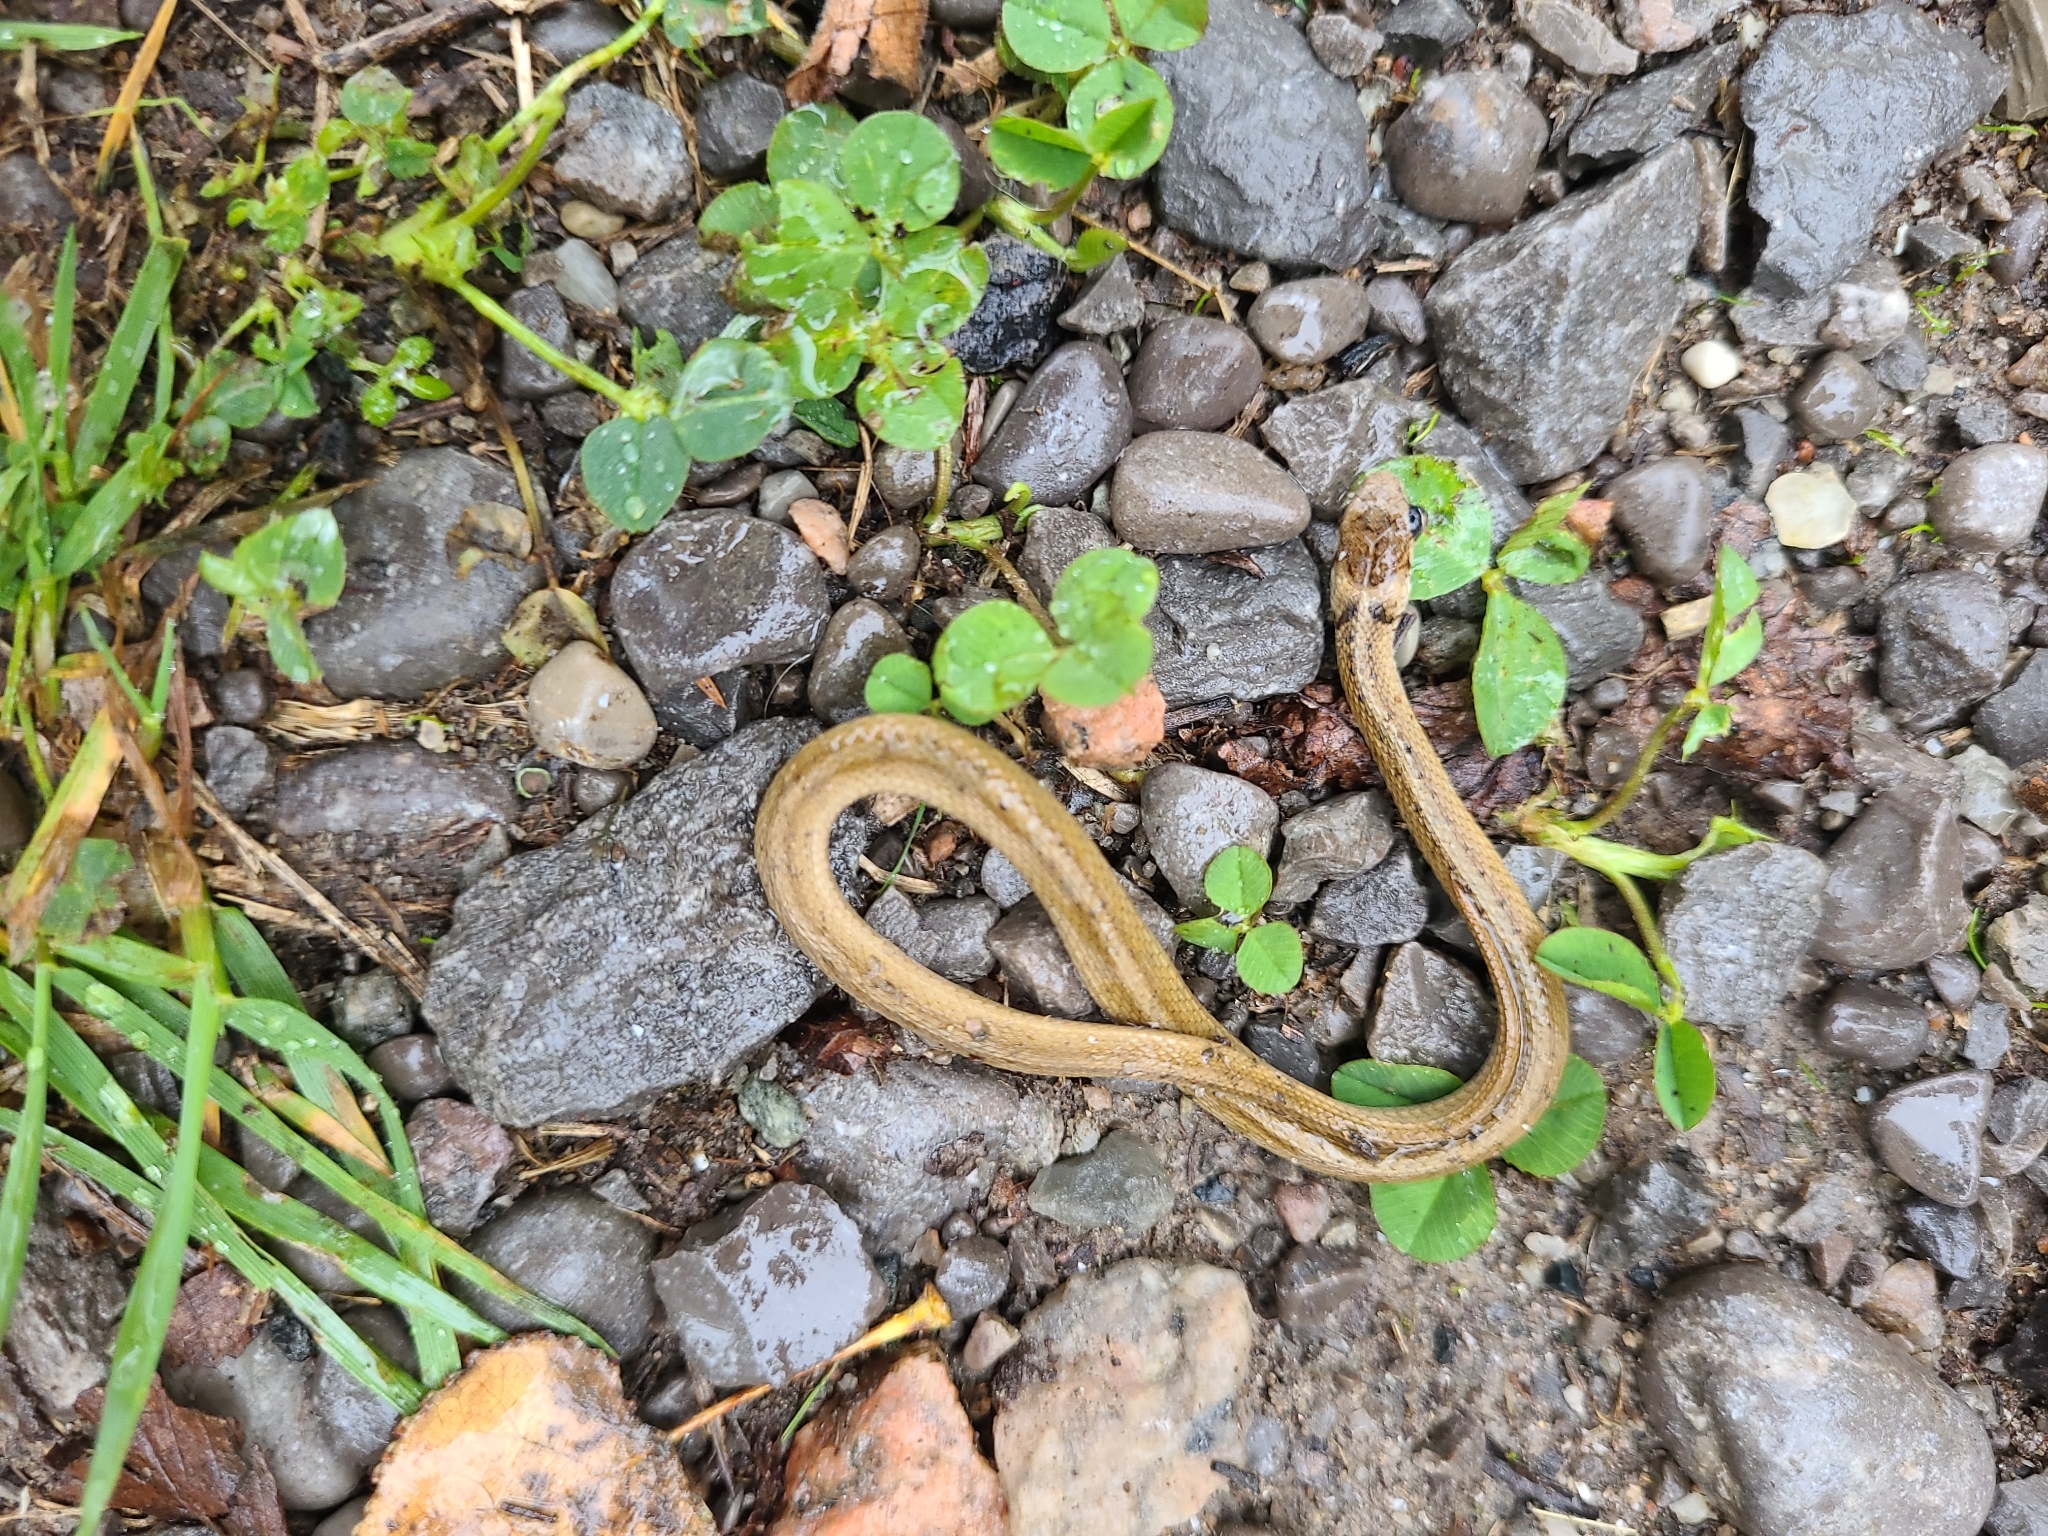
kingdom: Animalia
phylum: Chordata
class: Squamata
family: Colubridae
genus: Storeria
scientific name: Storeria dekayi
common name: (dekay’s) brown snake
